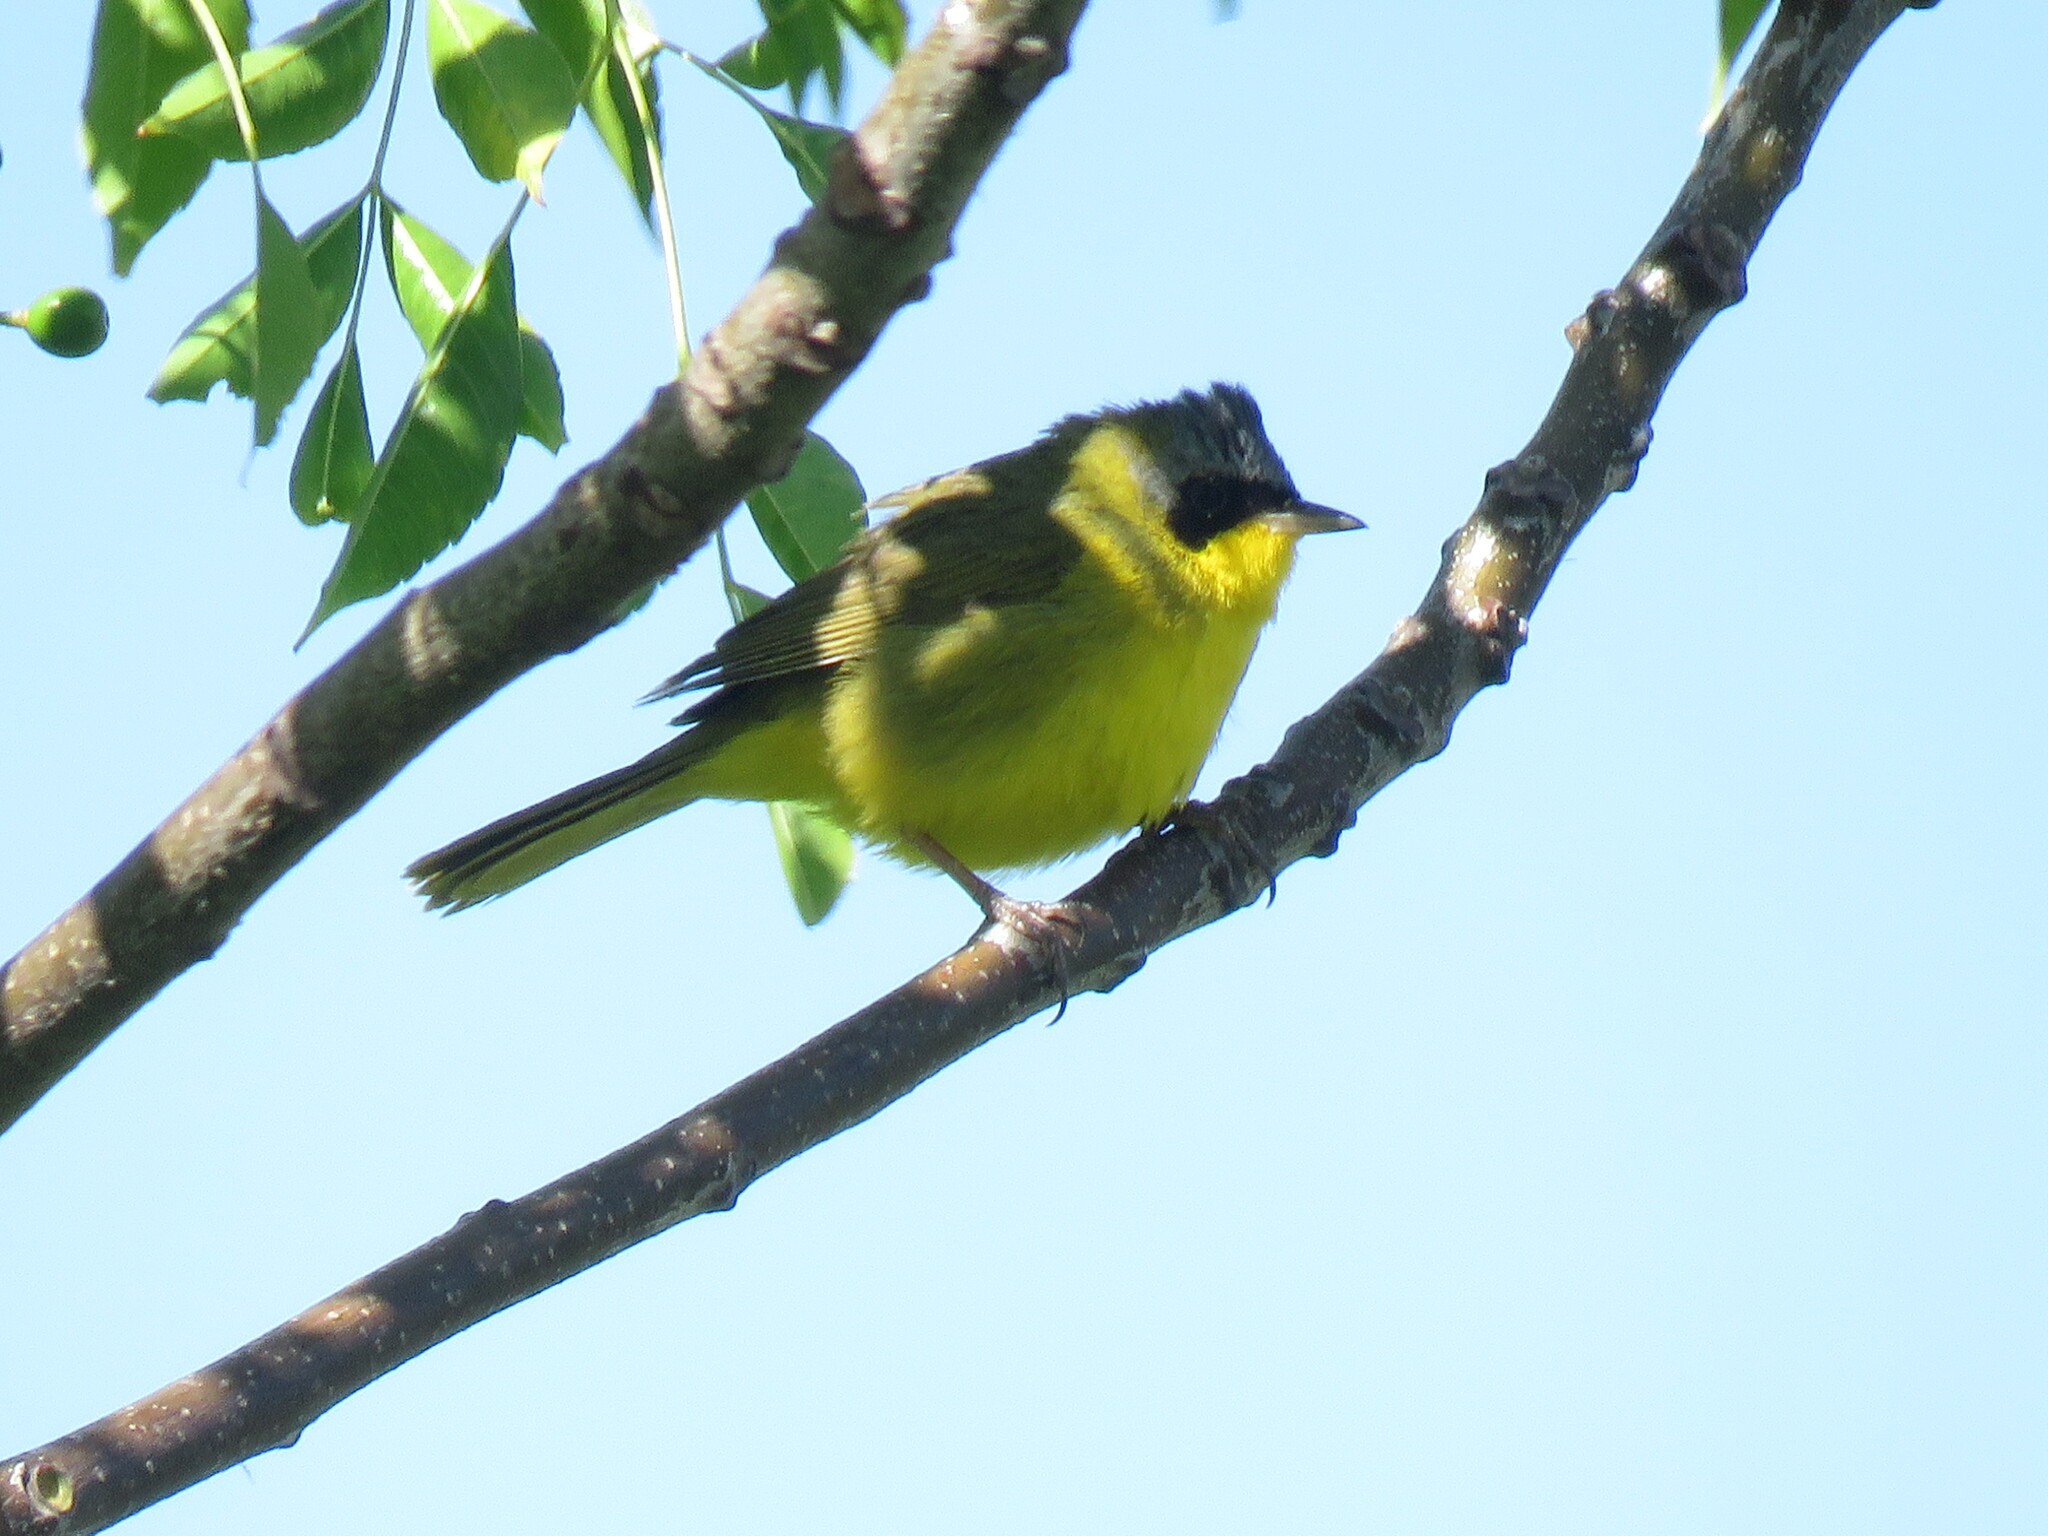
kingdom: Animalia
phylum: Chordata
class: Aves
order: Passeriformes
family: Parulidae
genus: Geothlypis
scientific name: Geothlypis velata
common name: Southern yellowthroat
